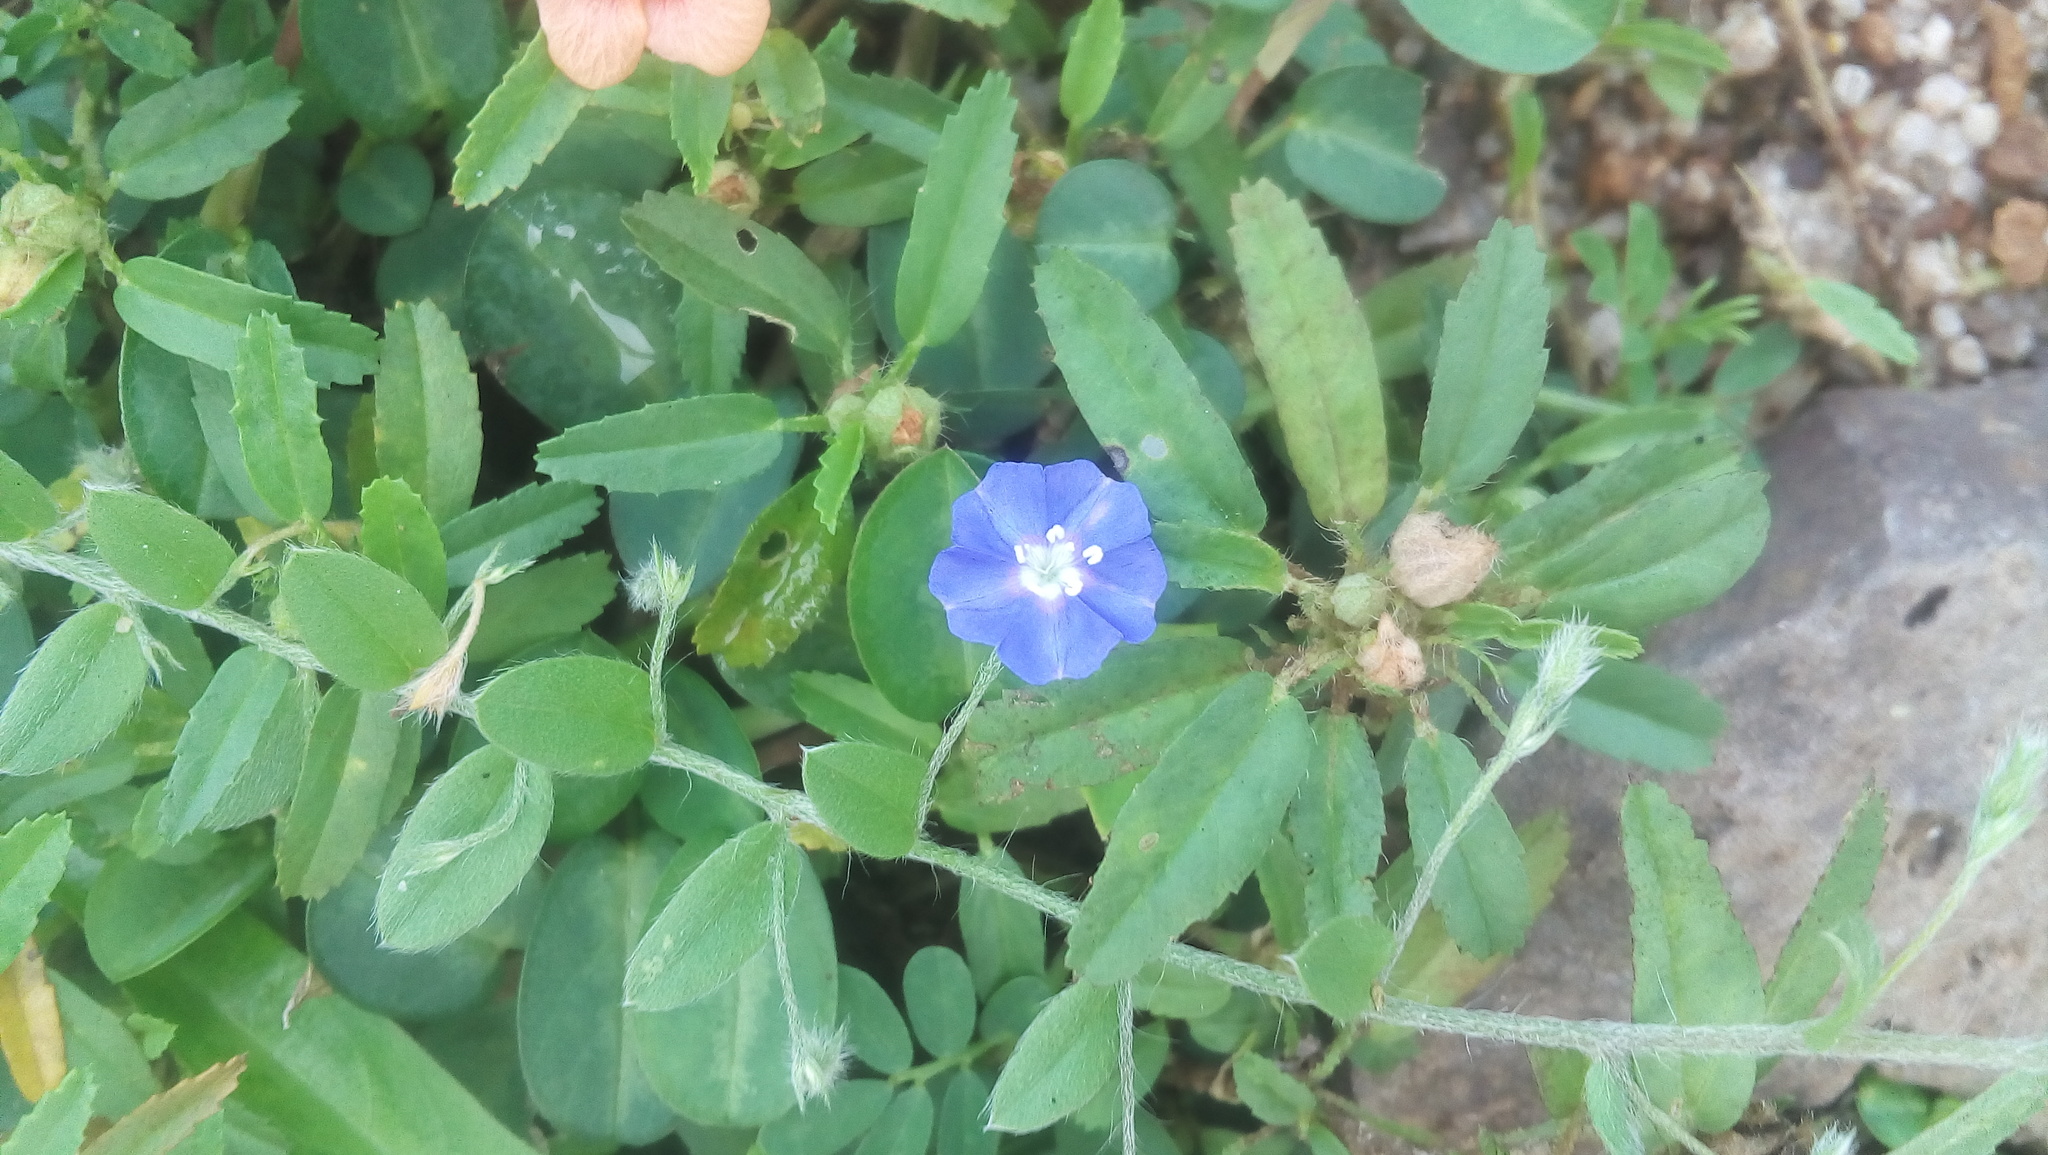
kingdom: Plantae
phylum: Tracheophyta
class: Magnoliopsida
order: Solanales
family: Convolvulaceae
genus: Evolvulus
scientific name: Evolvulus alsinoides
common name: Slender dwarf morning-glory
